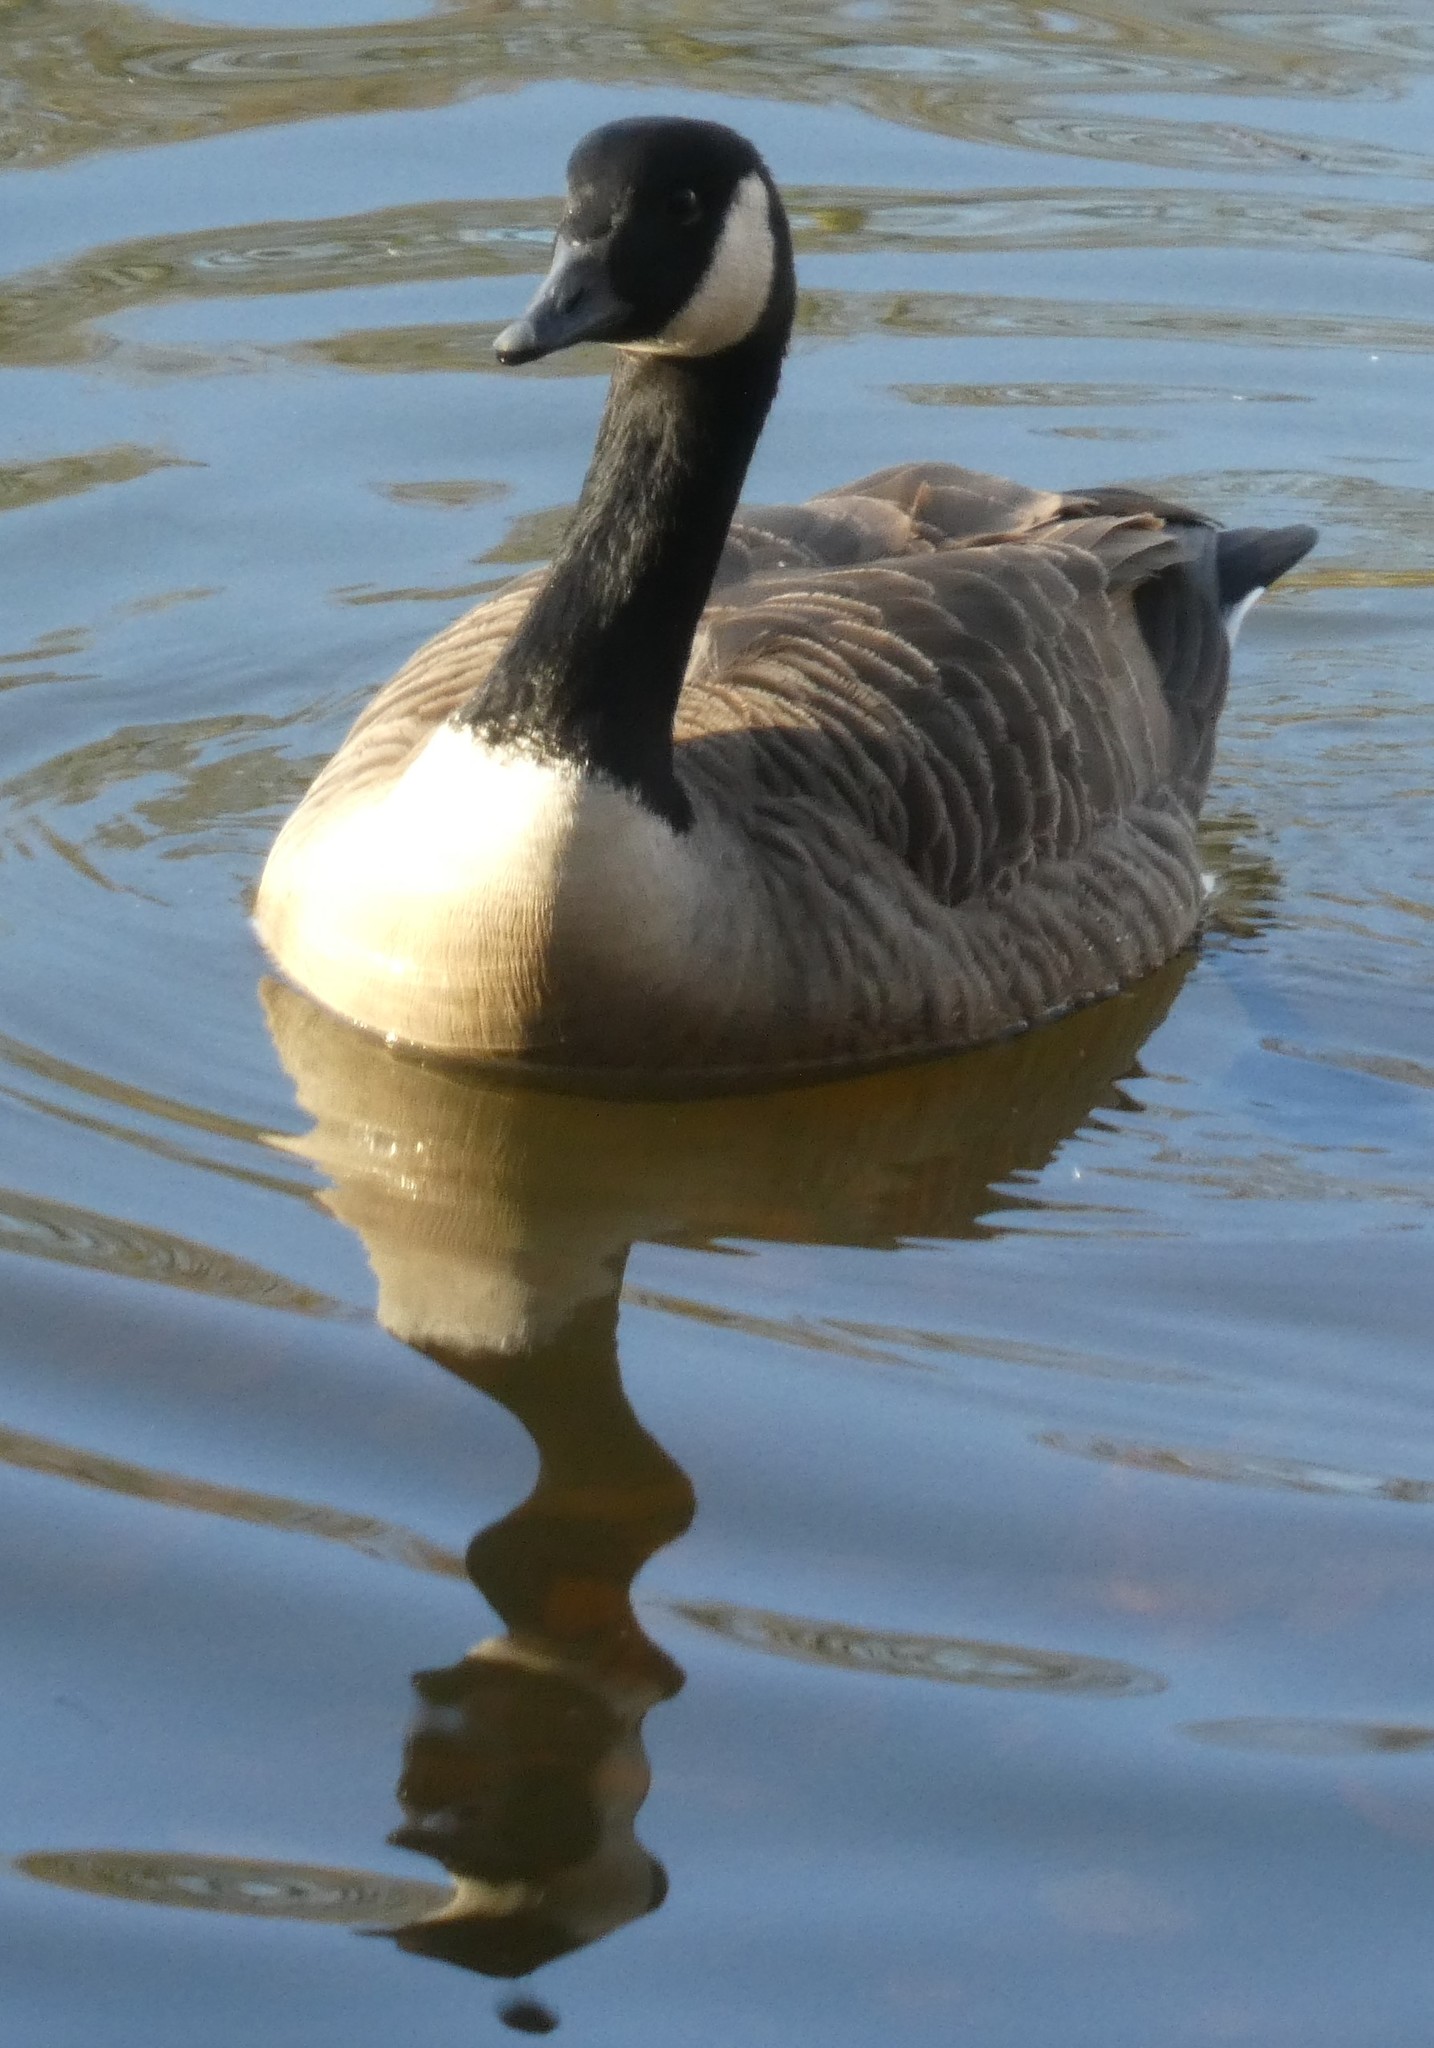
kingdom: Animalia
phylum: Chordata
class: Aves
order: Anseriformes
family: Anatidae
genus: Branta
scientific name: Branta canadensis
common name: Canada goose
